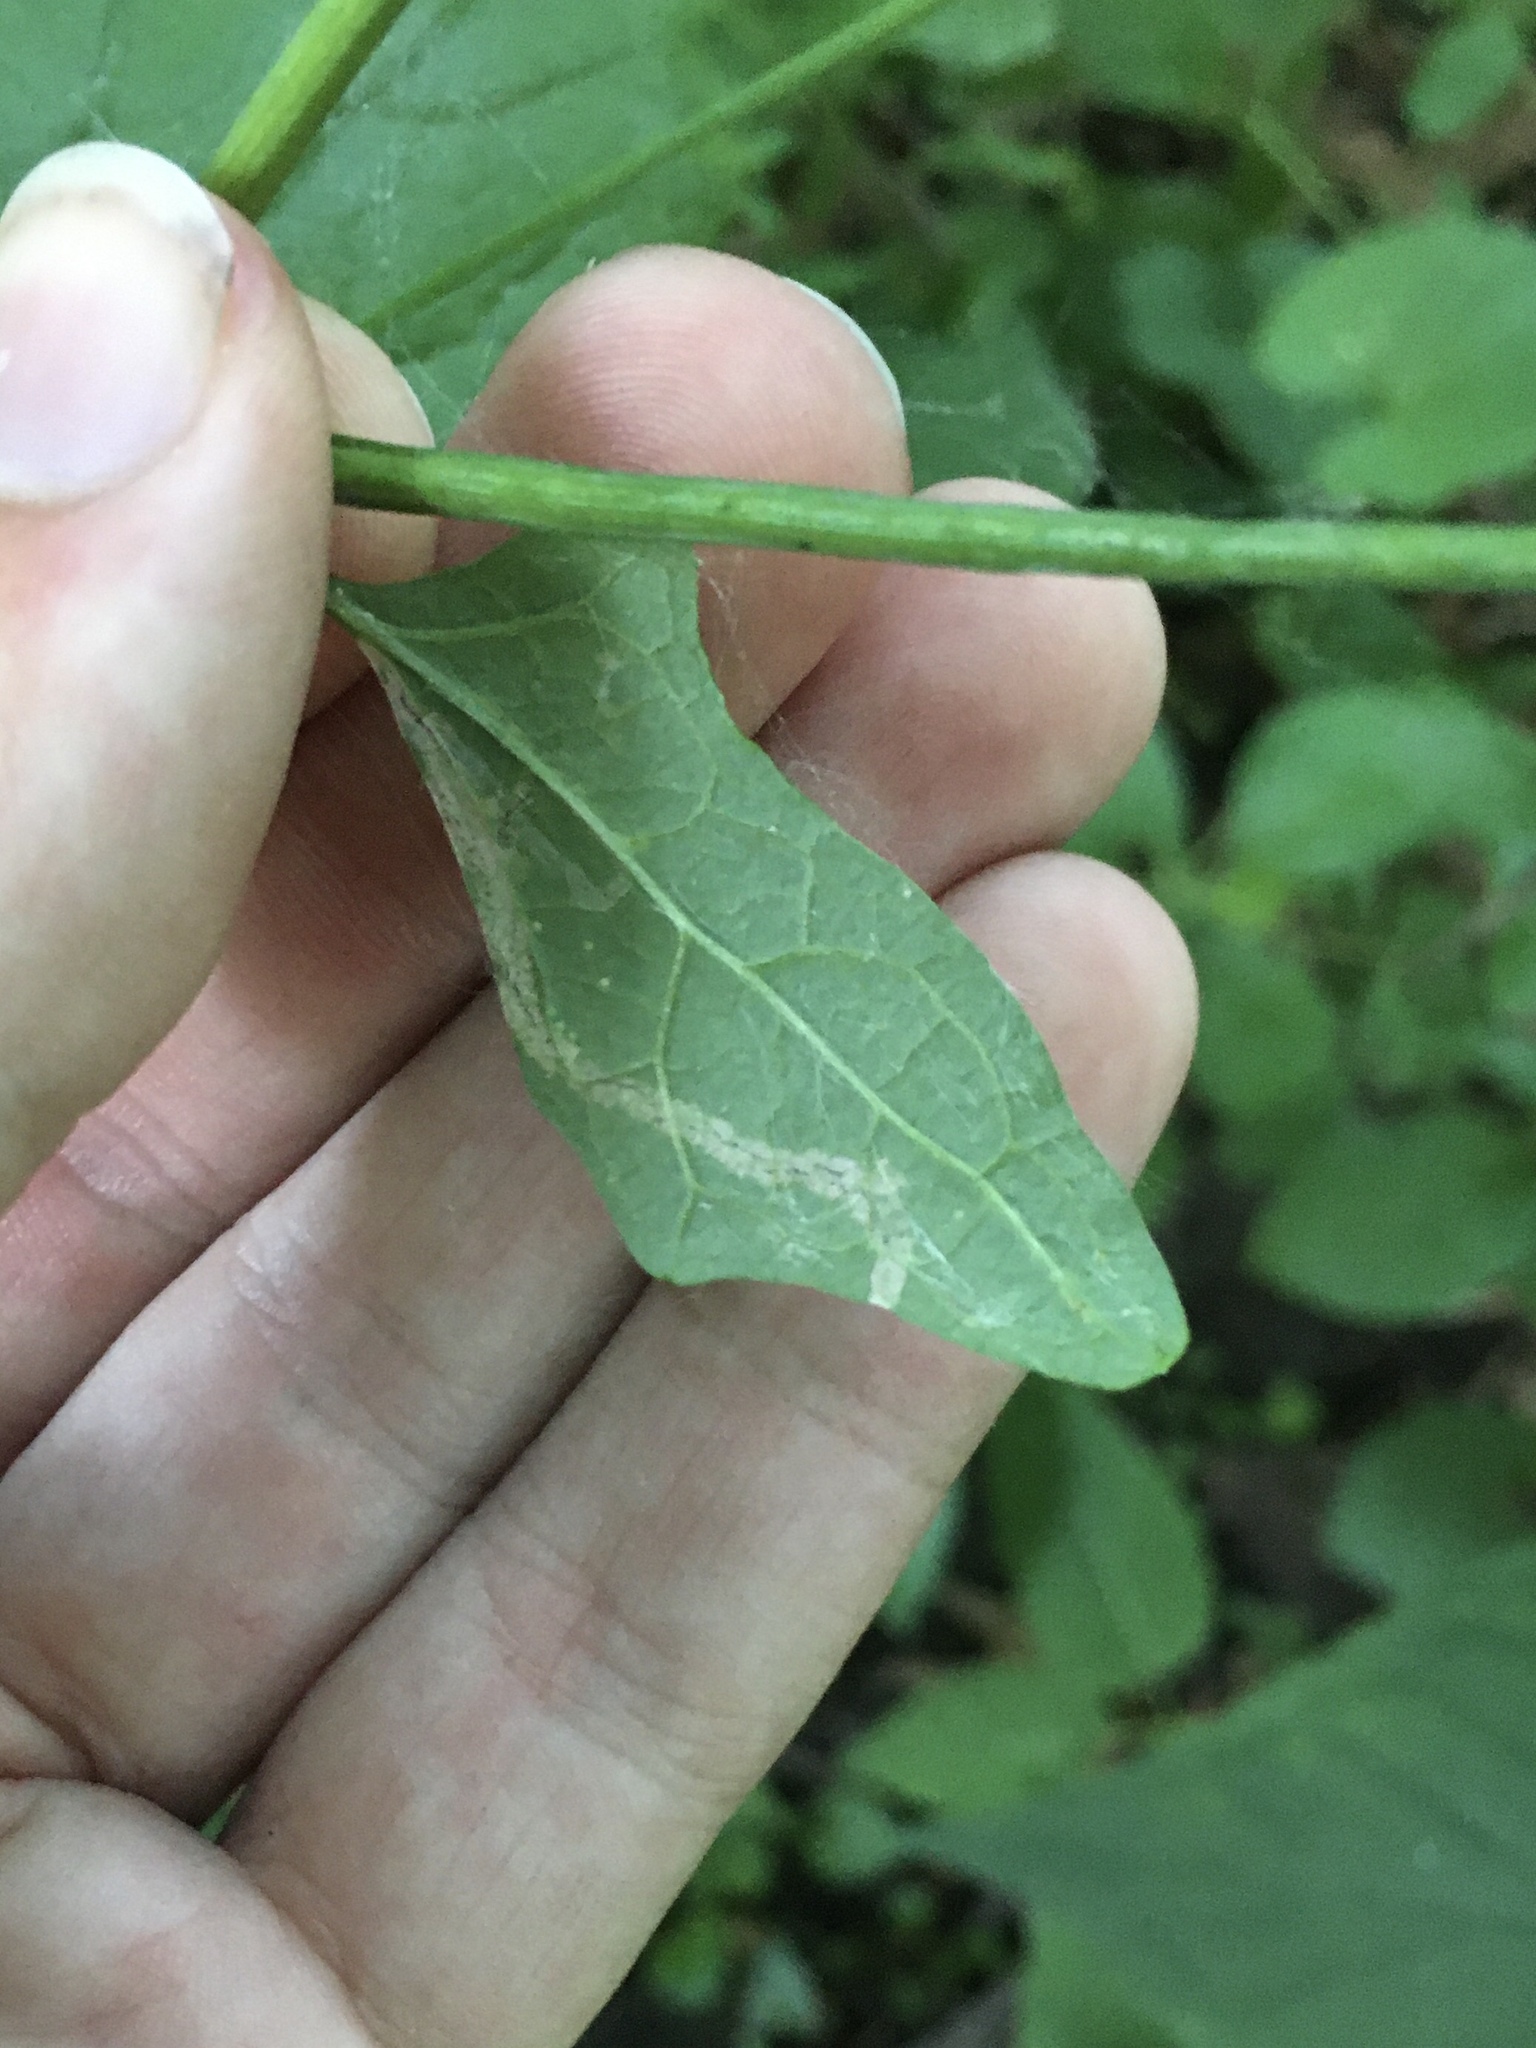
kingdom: Animalia
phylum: Arthropoda
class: Insecta
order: Diptera
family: Agromyzidae
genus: Liriomyza
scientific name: Liriomyza brassicae
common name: Serpentine leaf miner
